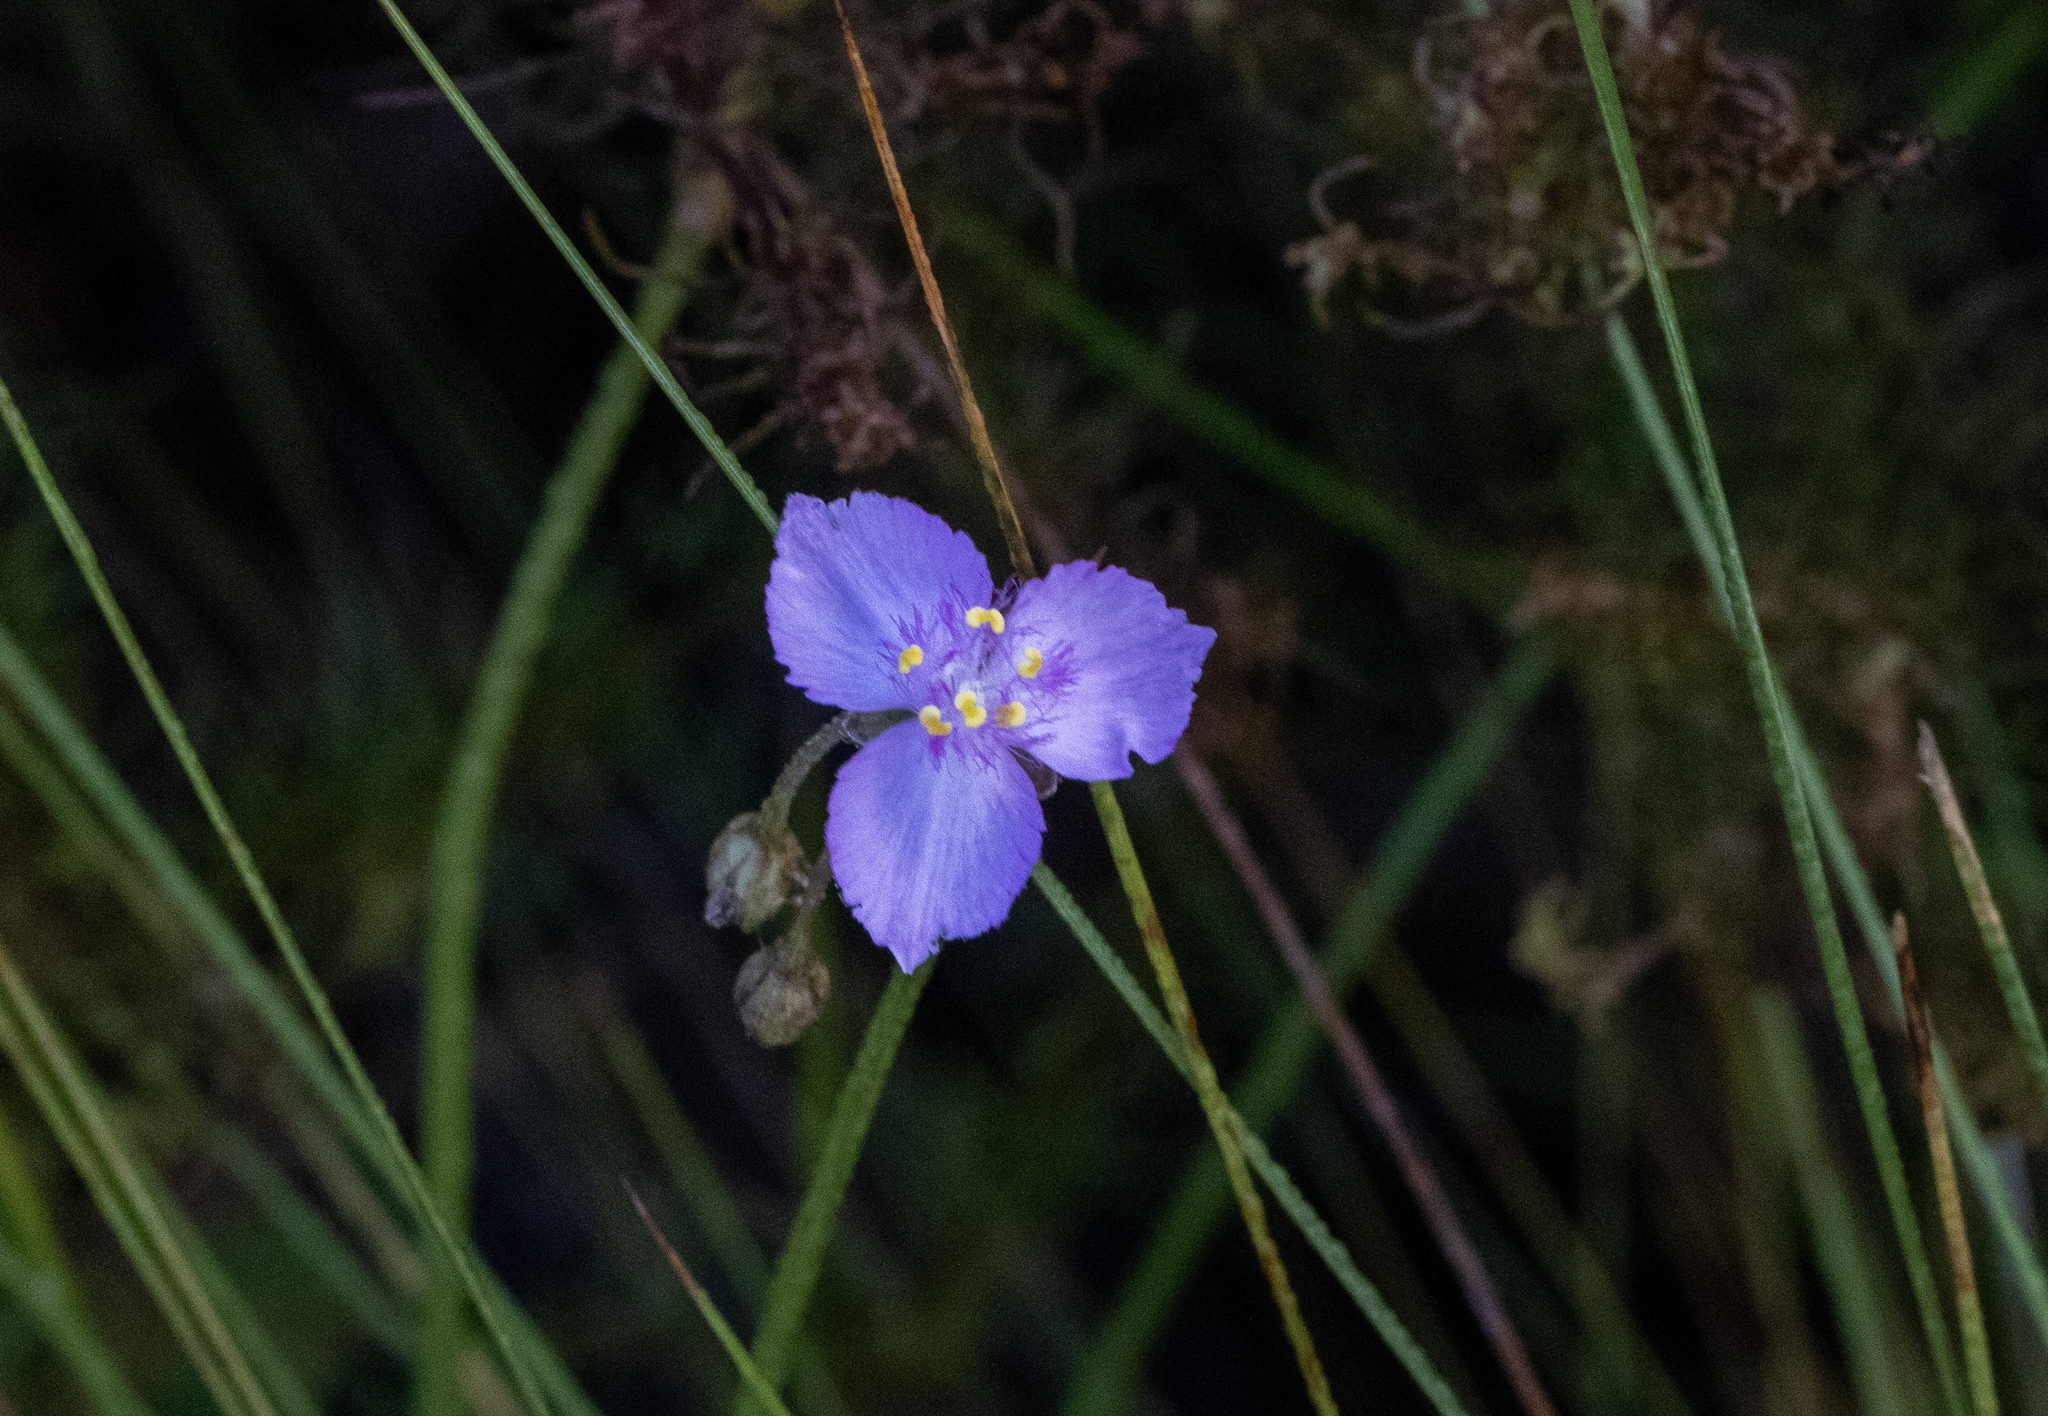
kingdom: Plantae
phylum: Tracheophyta
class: Liliopsida
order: Commelinales
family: Commelinaceae
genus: Callisia
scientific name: Callisia ornata
